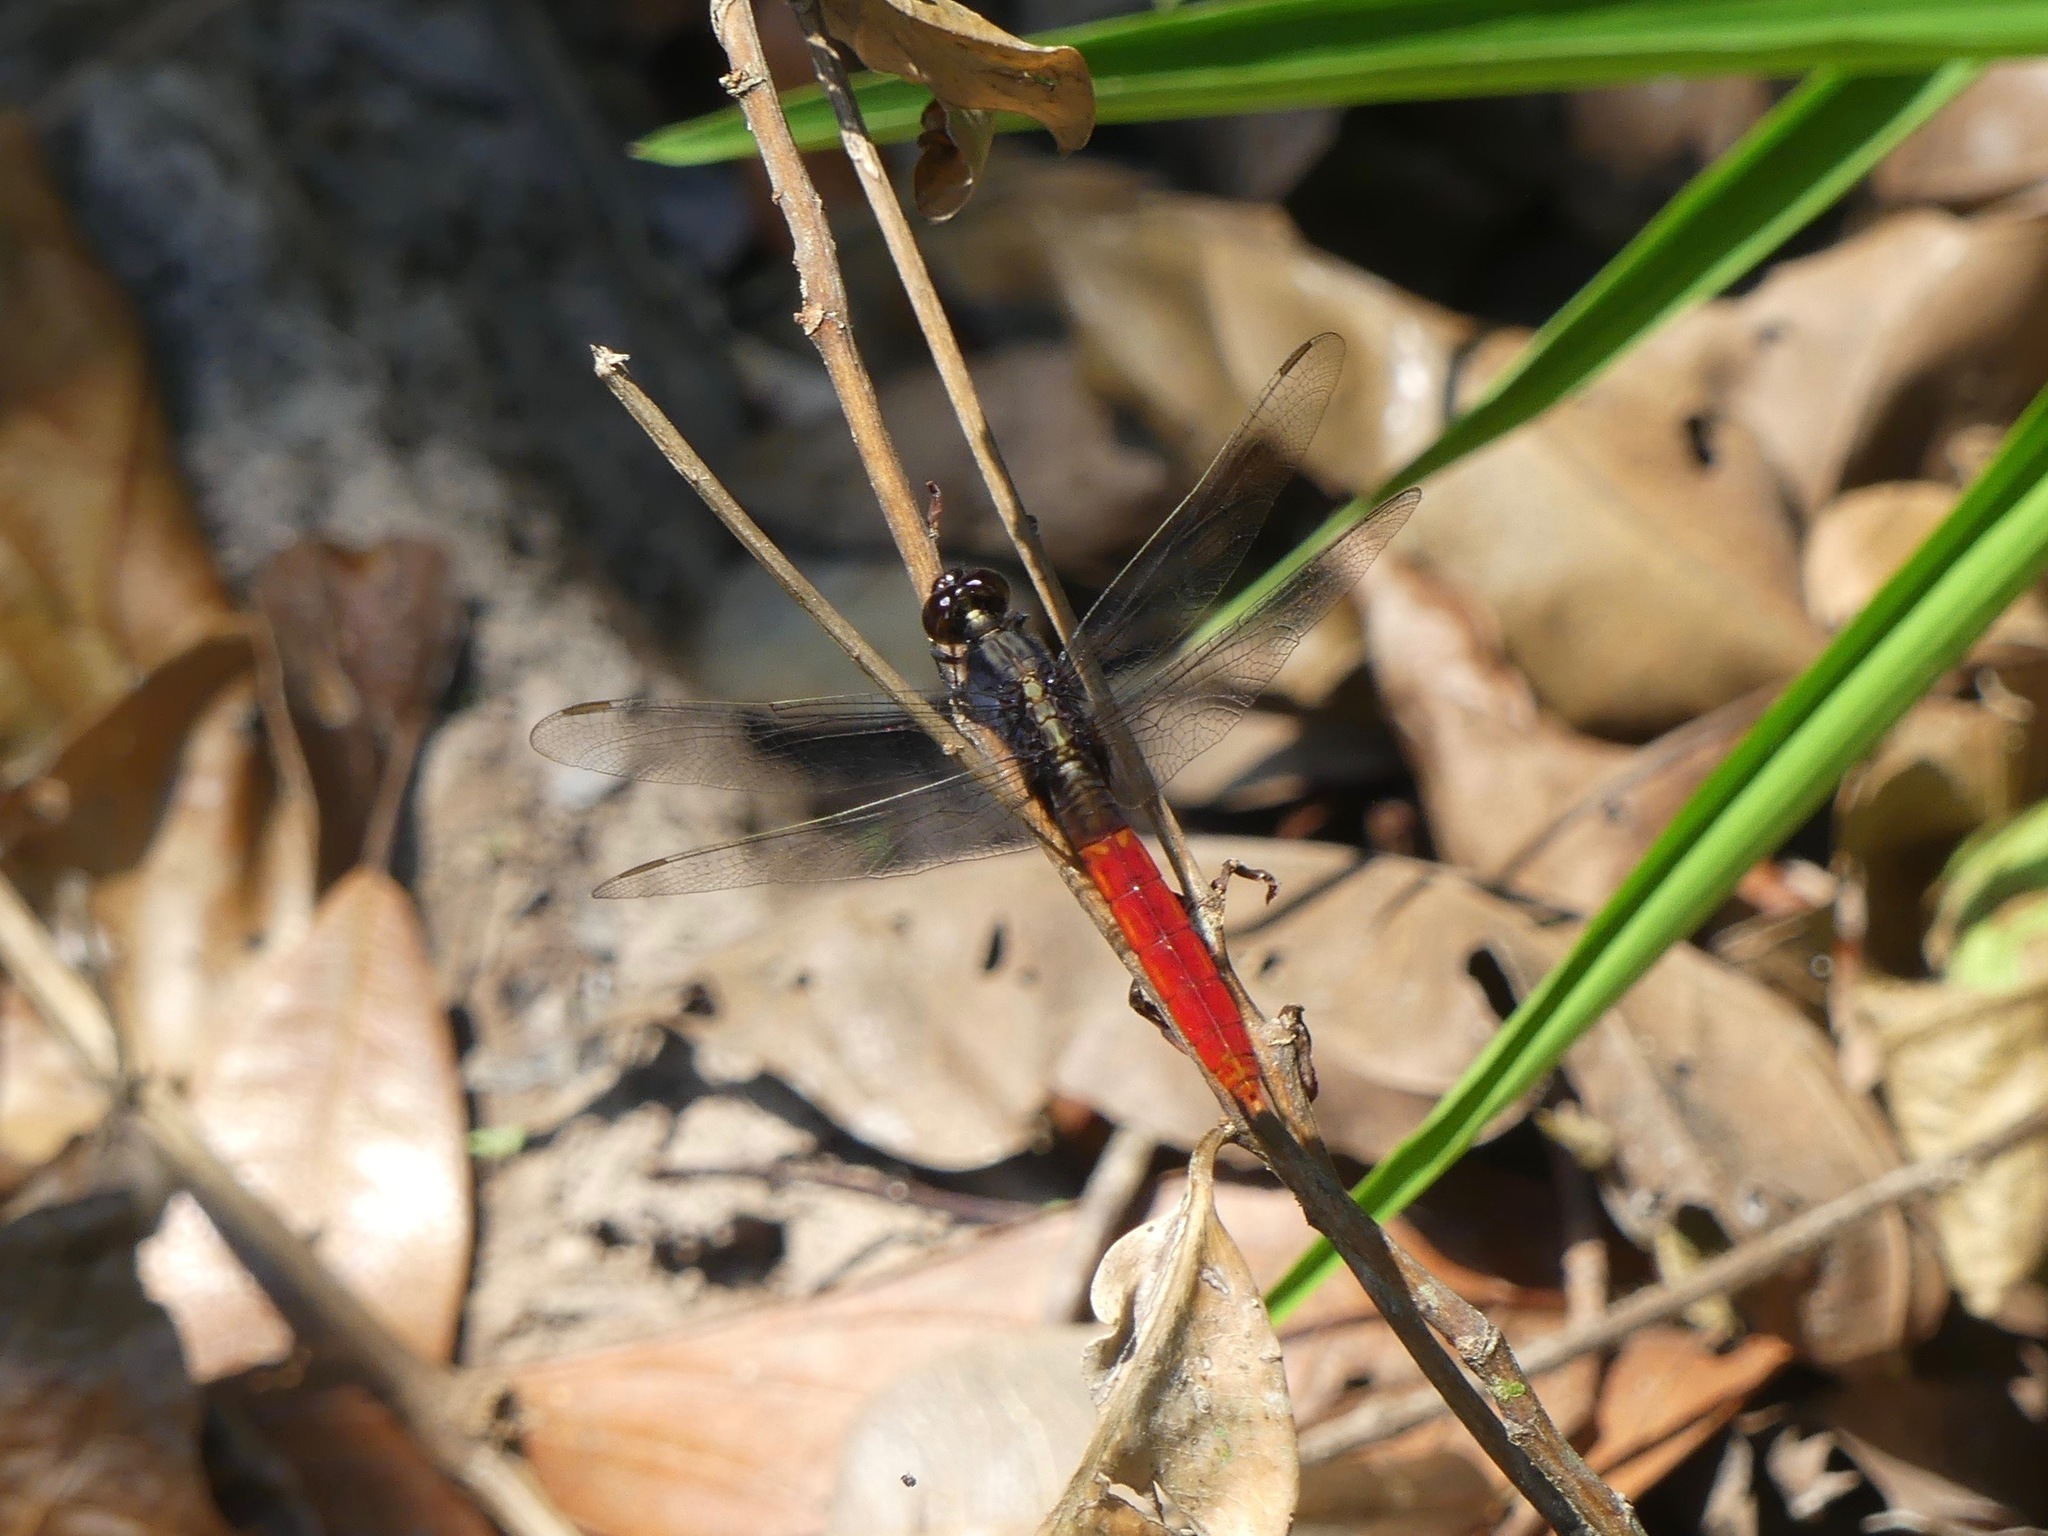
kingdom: Animalia
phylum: Arthropoda
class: Insecta
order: Odonata
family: Libellulidae
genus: Erythemis
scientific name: Erythemis peruviana
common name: Flame-tailed pondhawk
